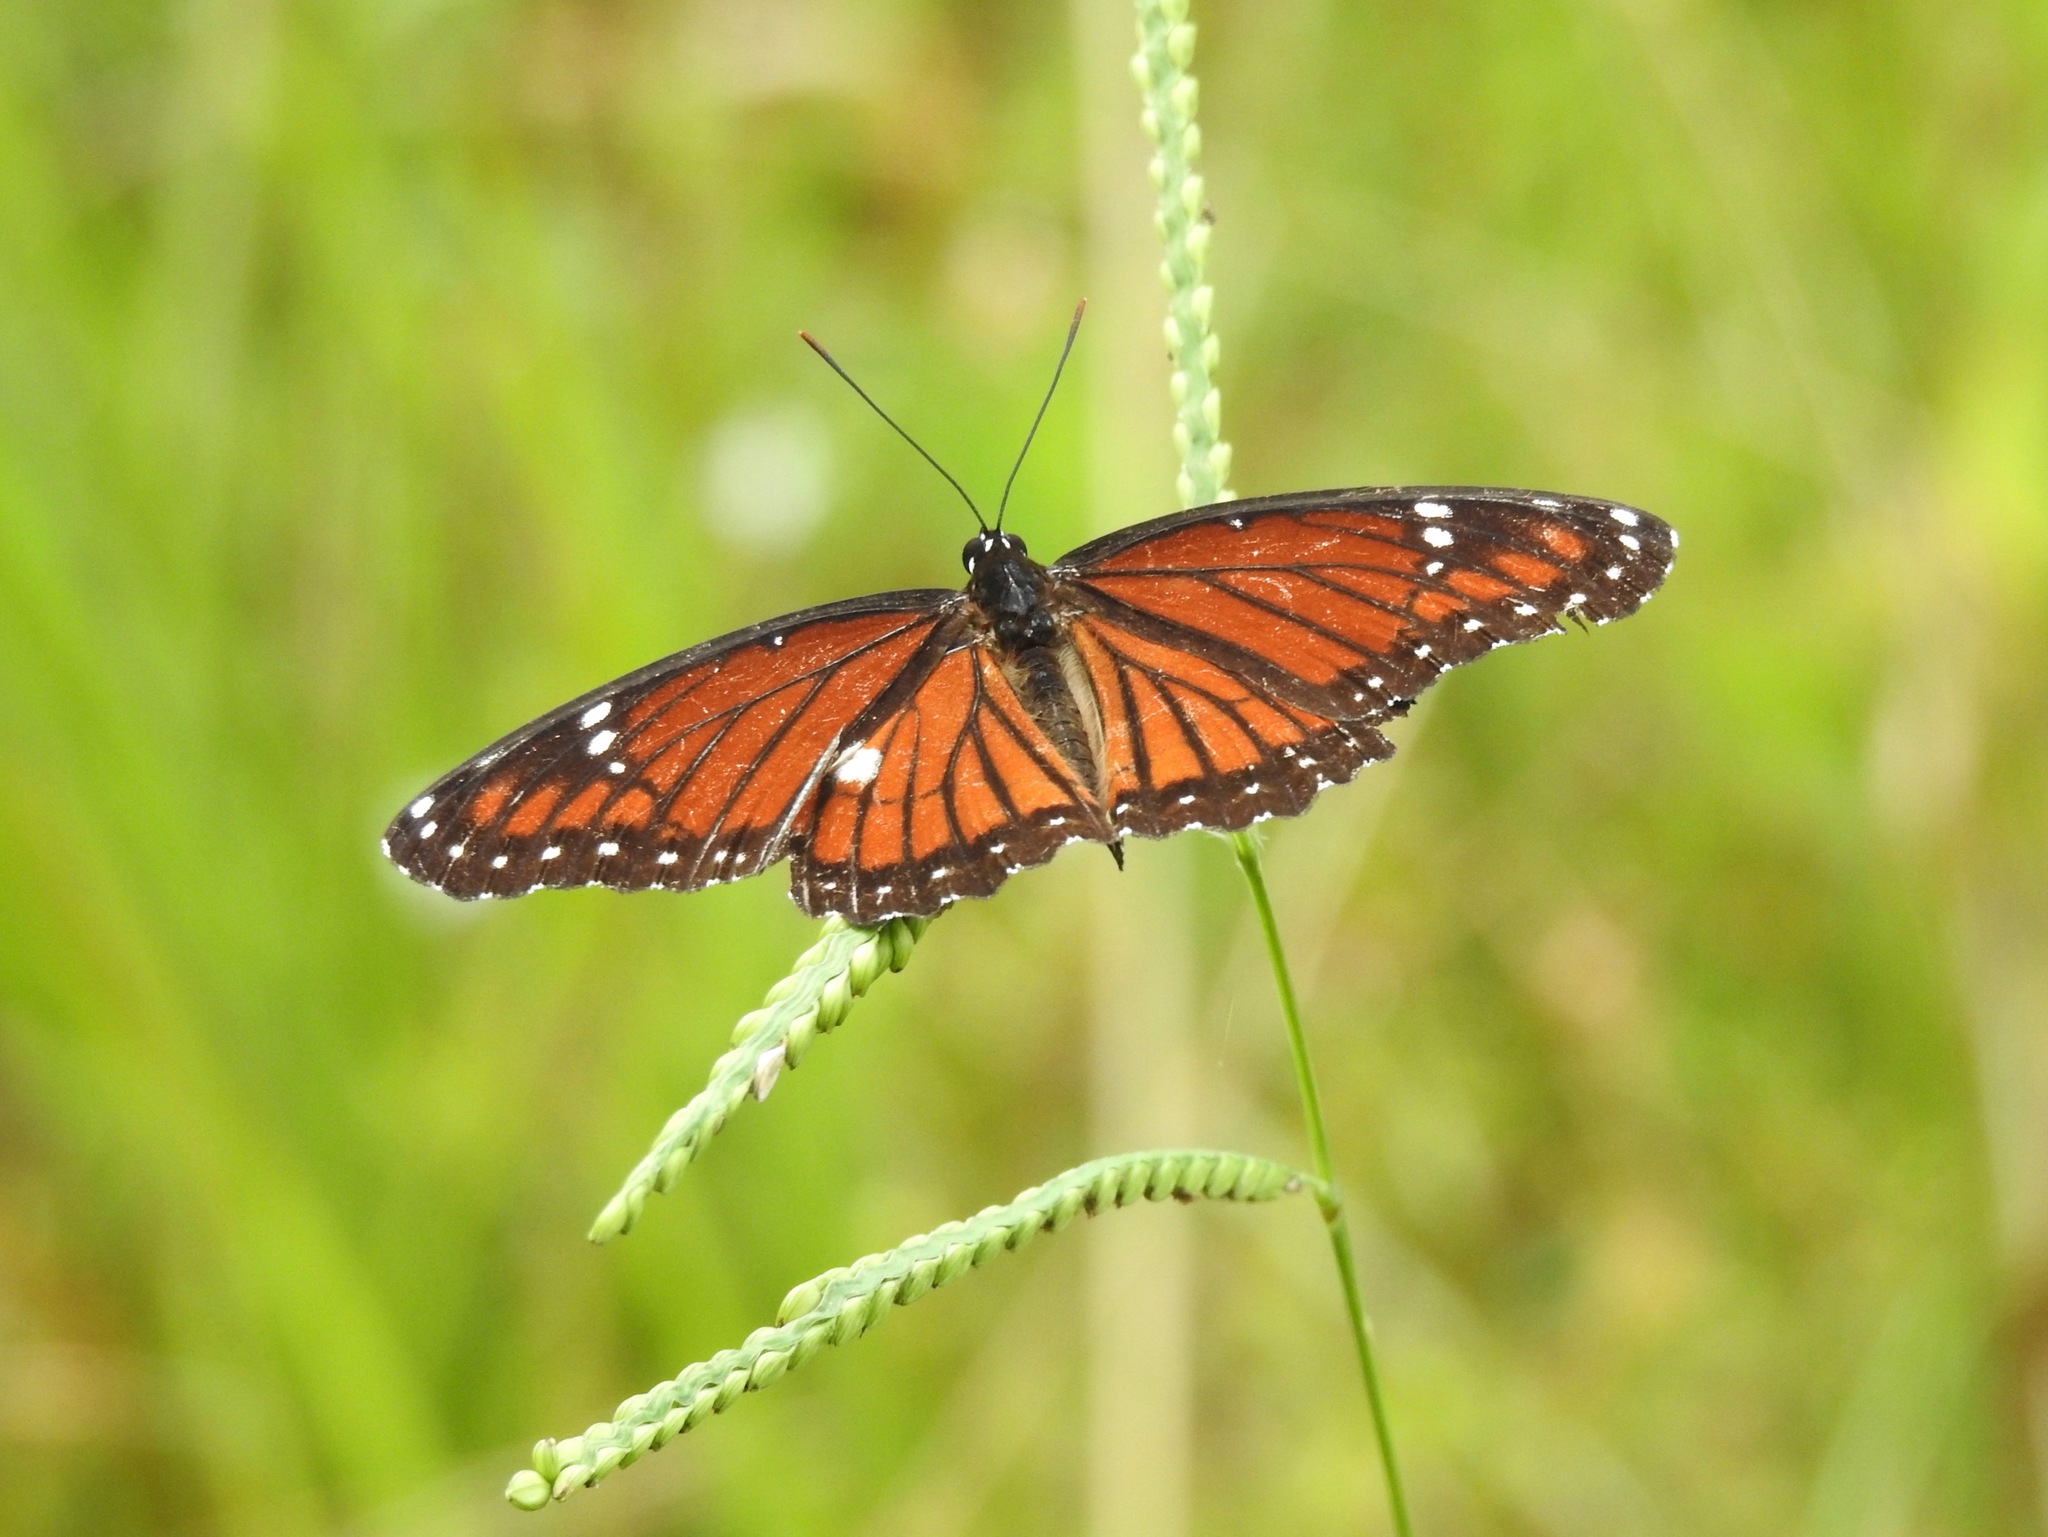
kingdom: Animalia
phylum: Arthropoda
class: Insecta
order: Lepidoptera
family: Nymphalidae
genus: Limenitis
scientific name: Limenitis archippus
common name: Viceroy
